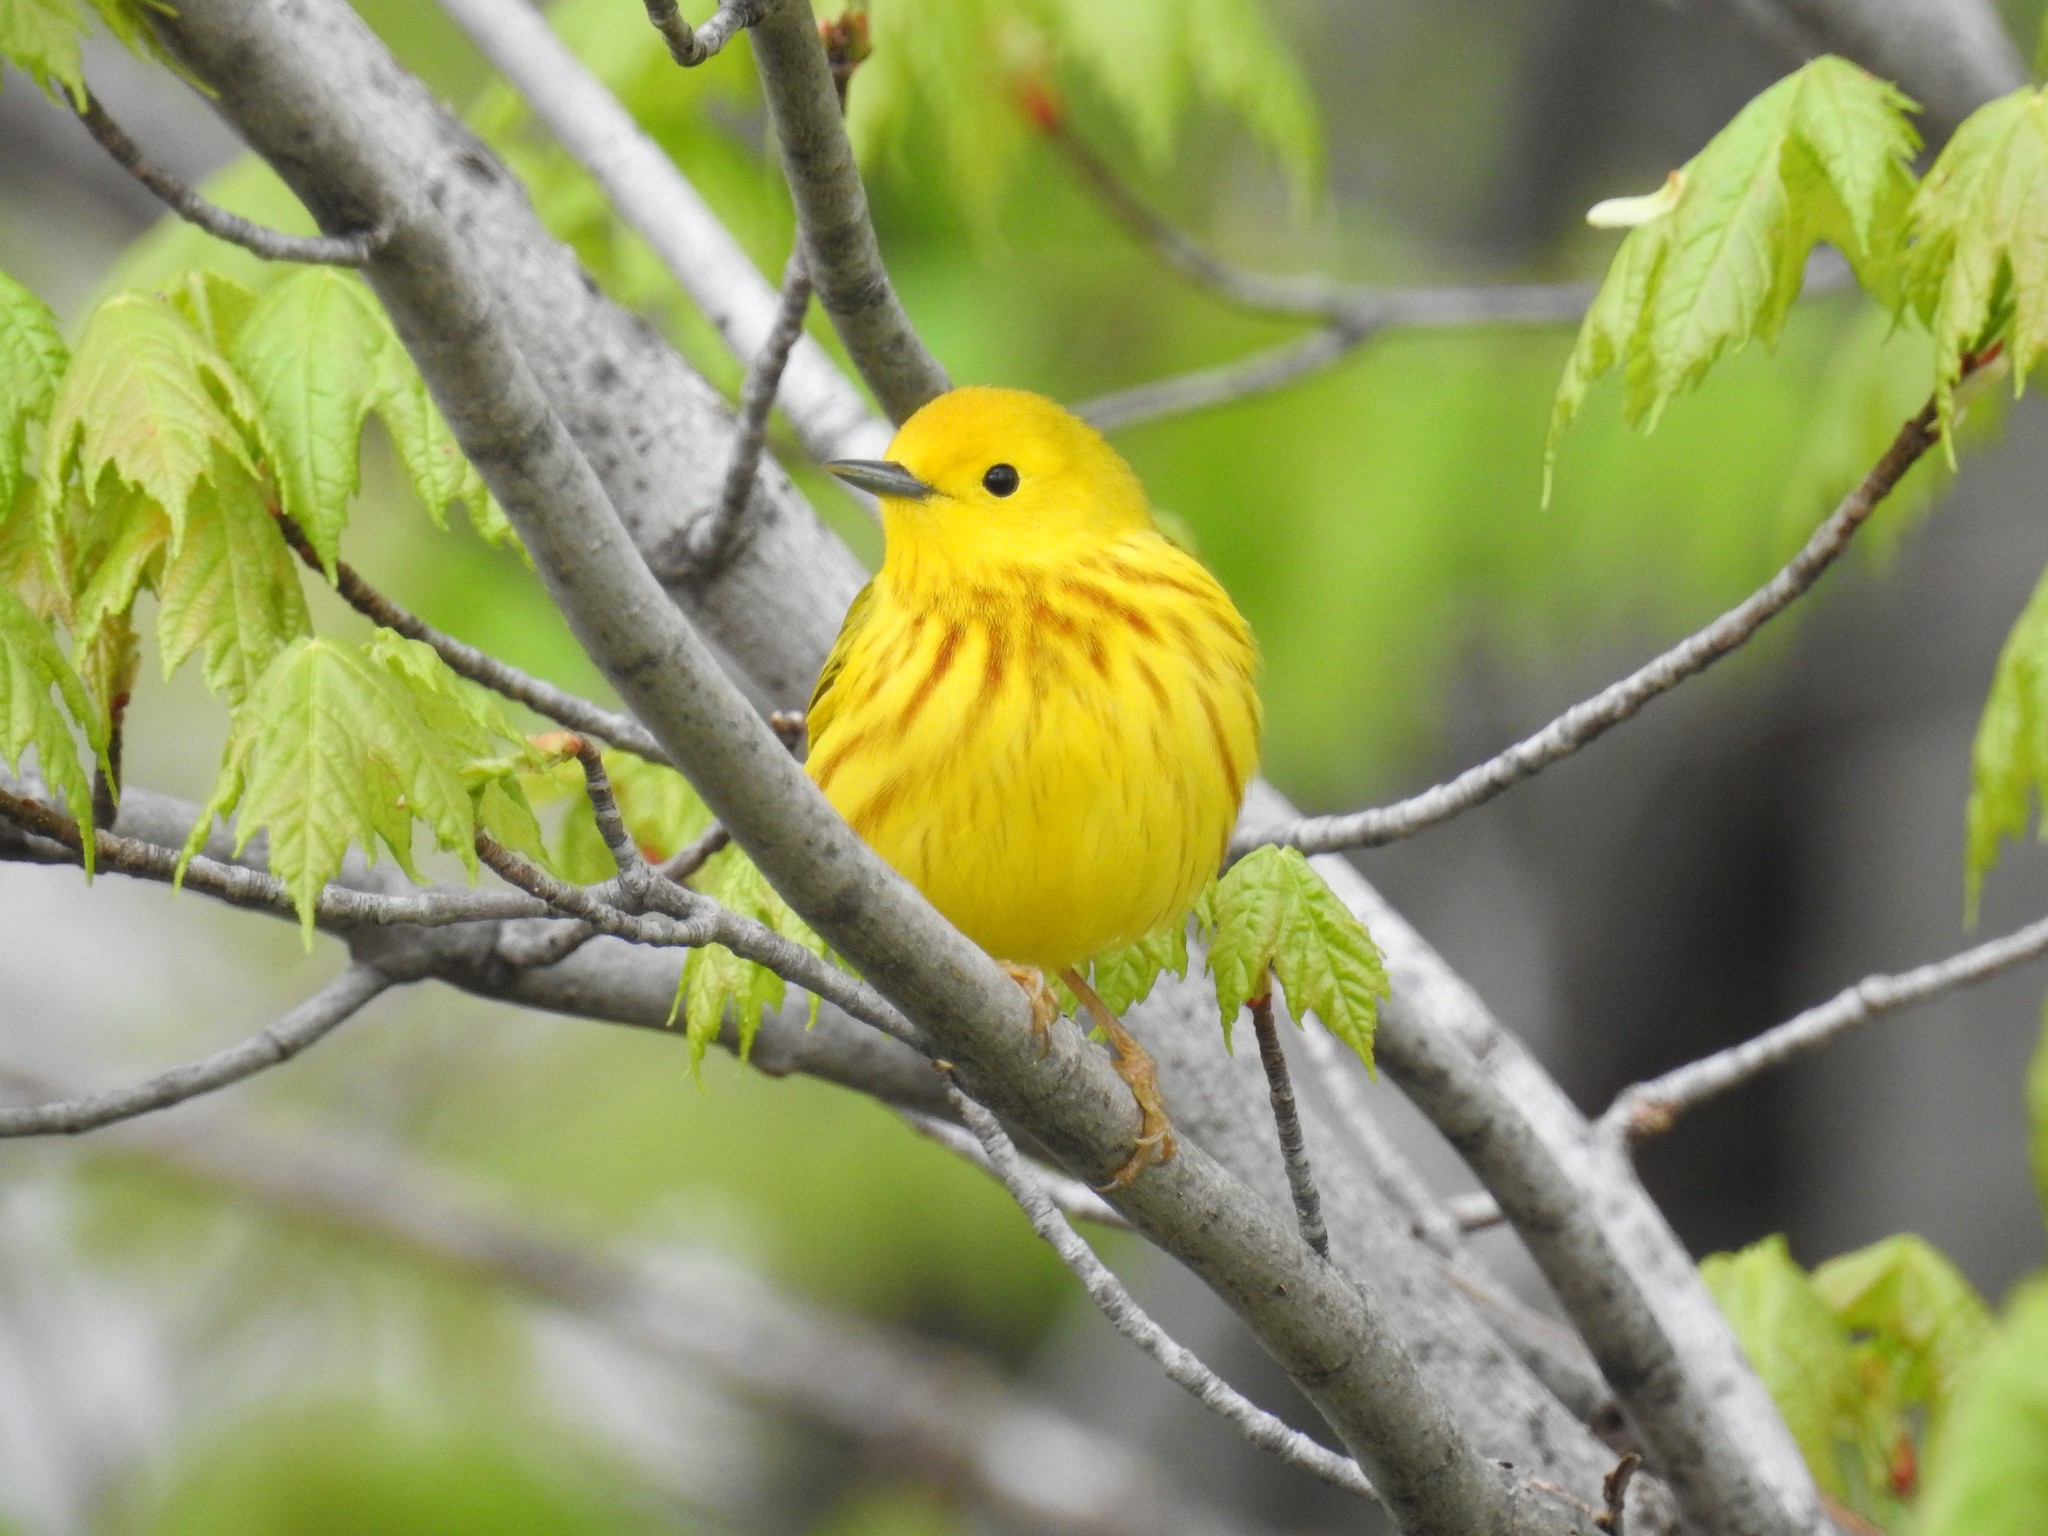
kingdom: Animalia
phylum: Chordata
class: Aves
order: Passeriformes
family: Parulidae
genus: Setophaga
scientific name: Setophaga petechia
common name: Yellow warbler
